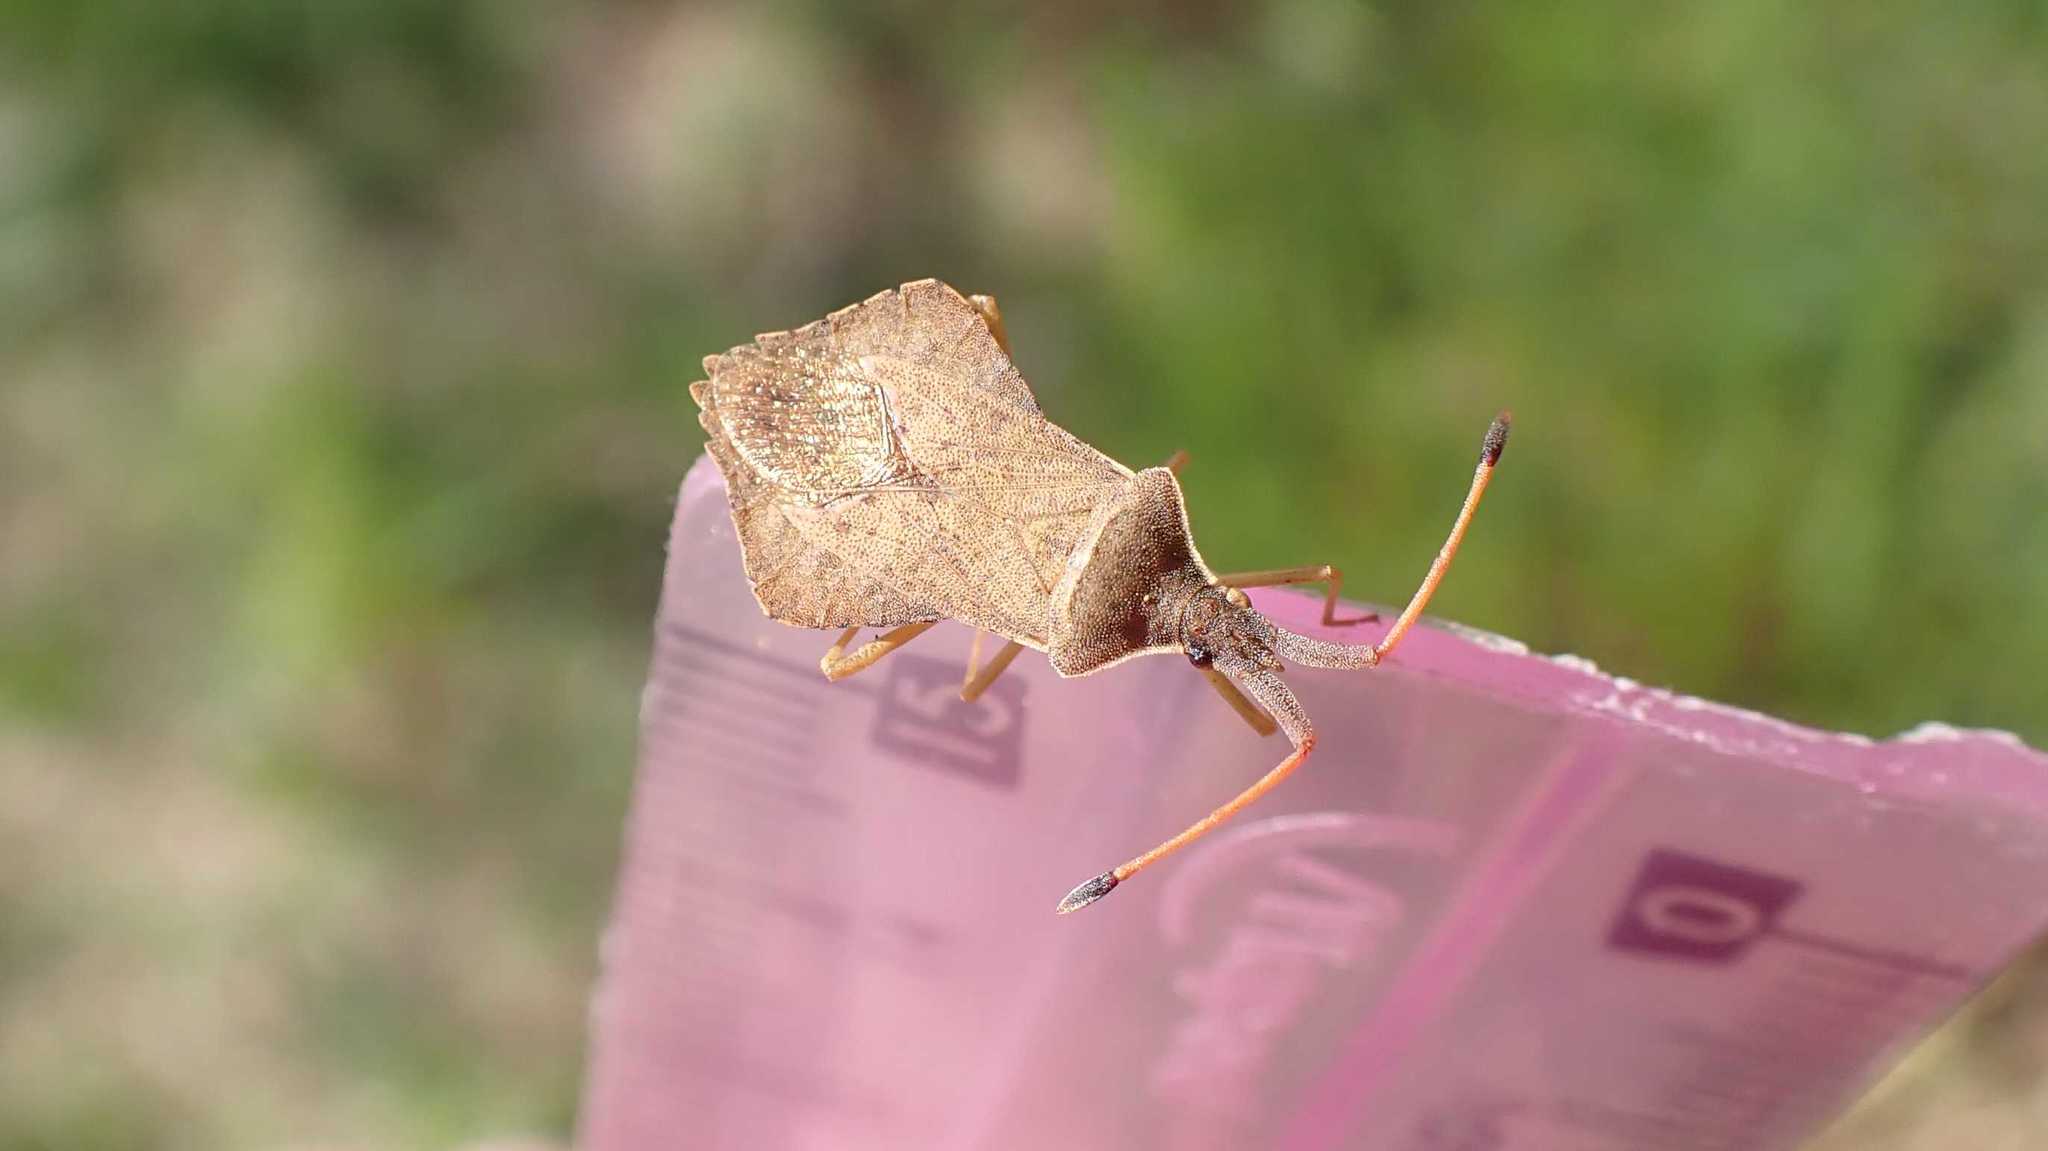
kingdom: Animalia
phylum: Arthropoda
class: Insecta
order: Hemiptera
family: Coreidae
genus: Syromastus
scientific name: Syromastus rhombeus
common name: Rhombic leatherbug
